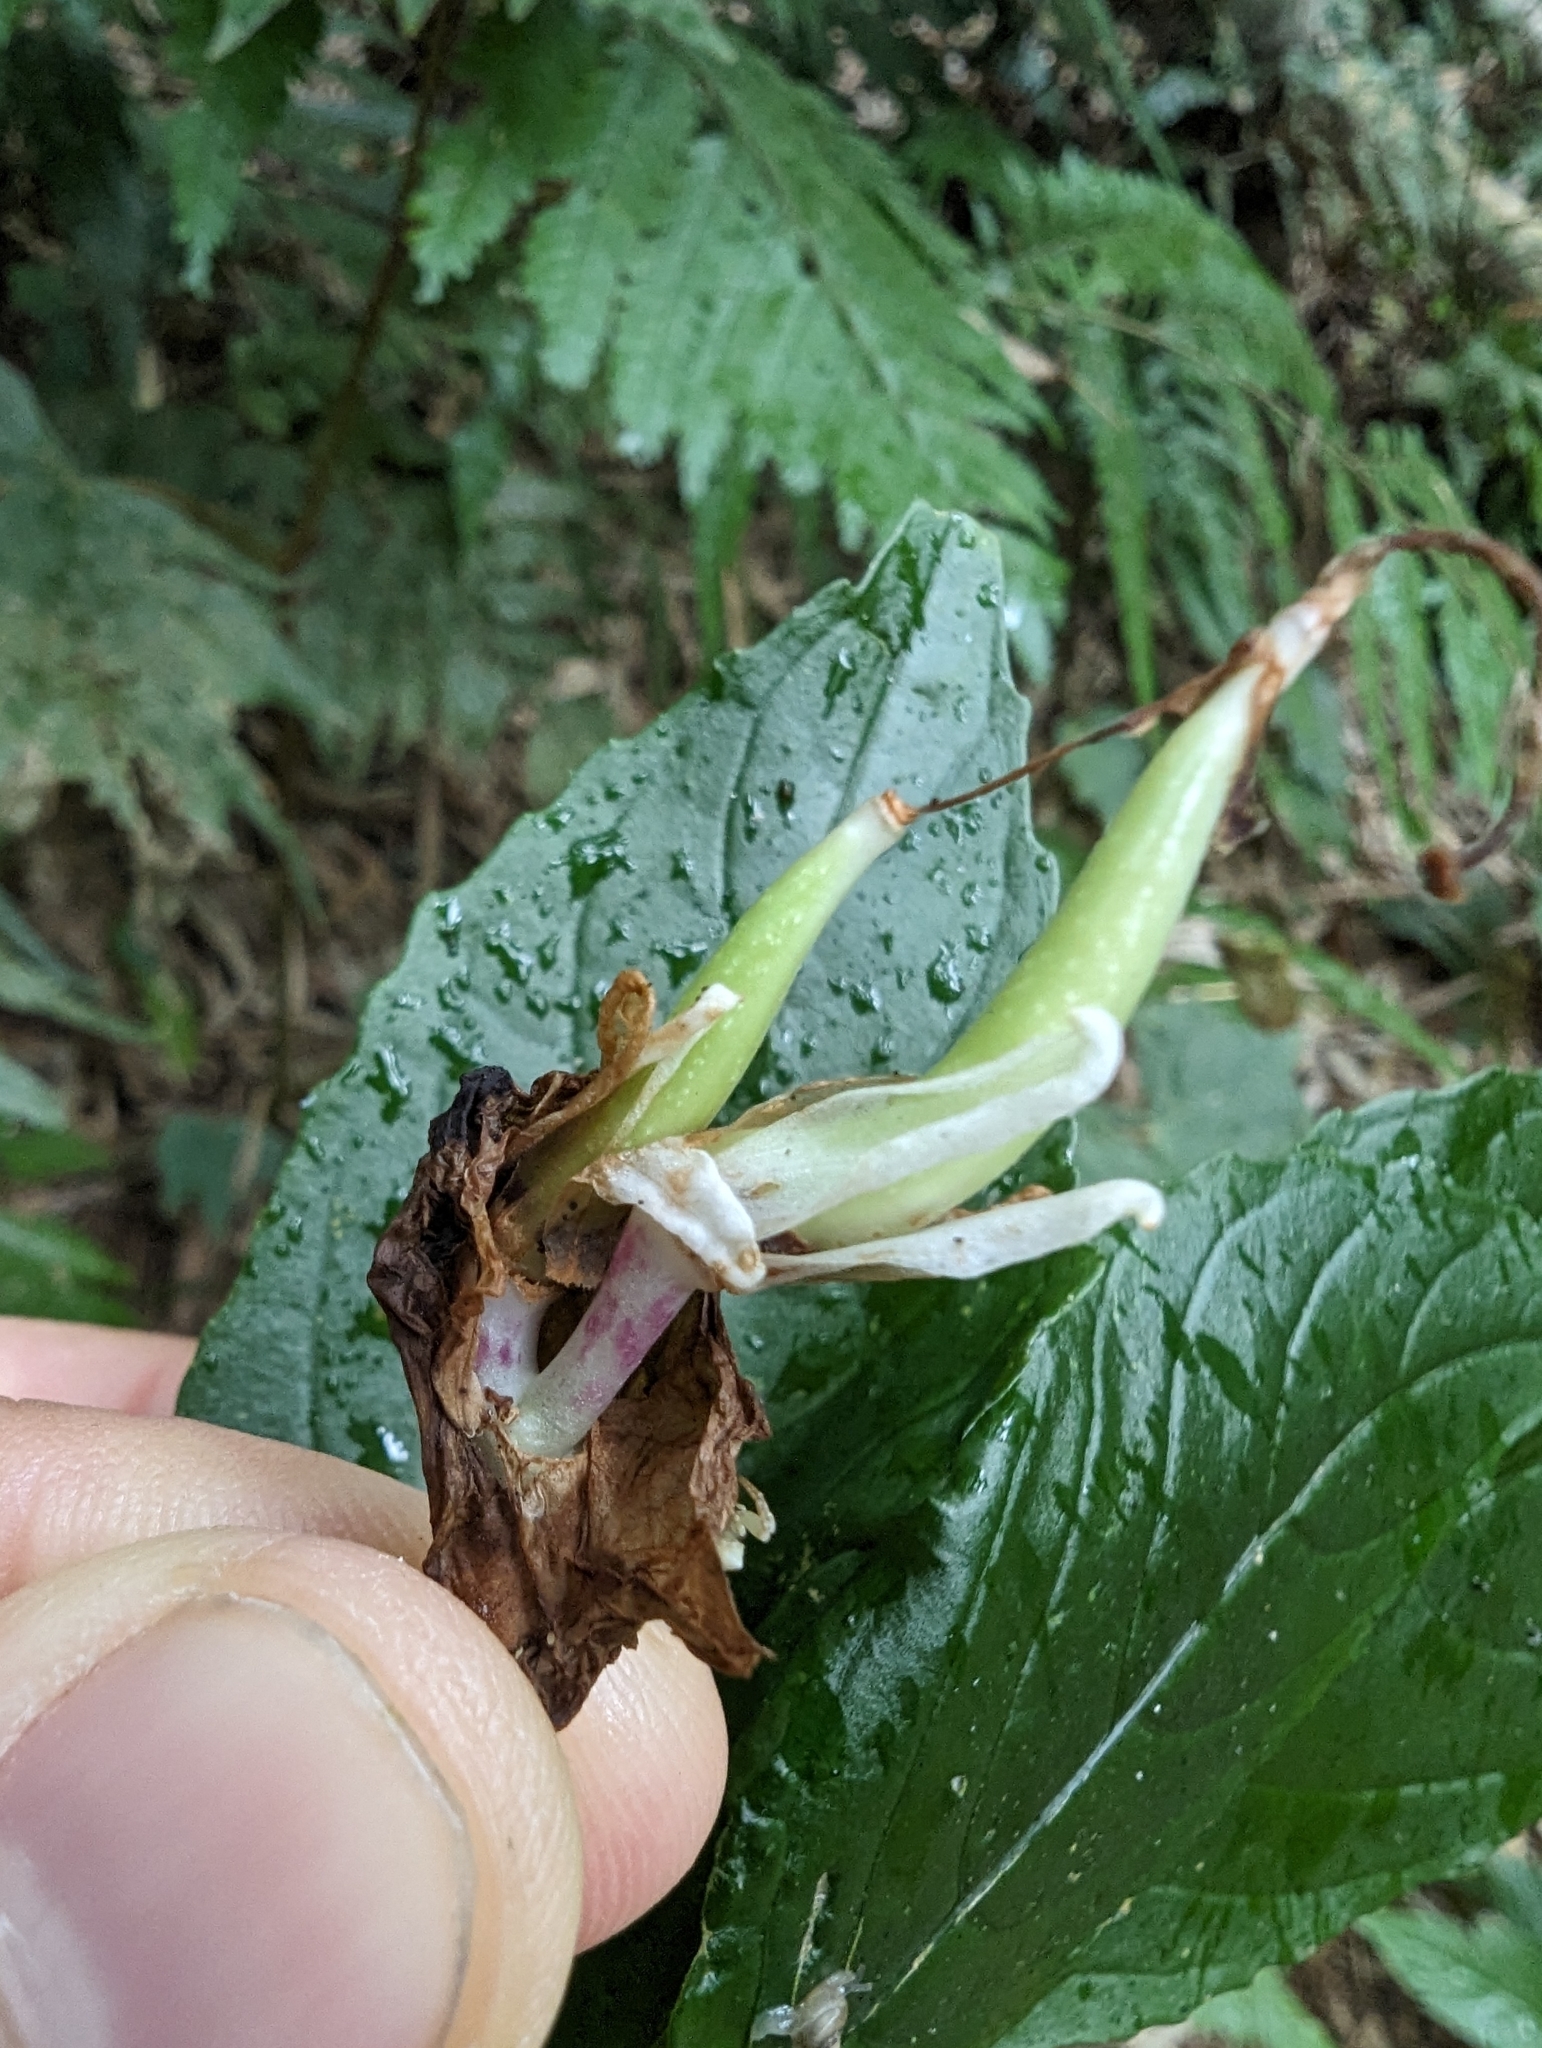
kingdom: Plantae
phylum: Tracheophyta
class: Magnoliopsida
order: Lamiales
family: Gesneriaceae
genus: Hemiboea
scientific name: Hemiboea bicornuta
